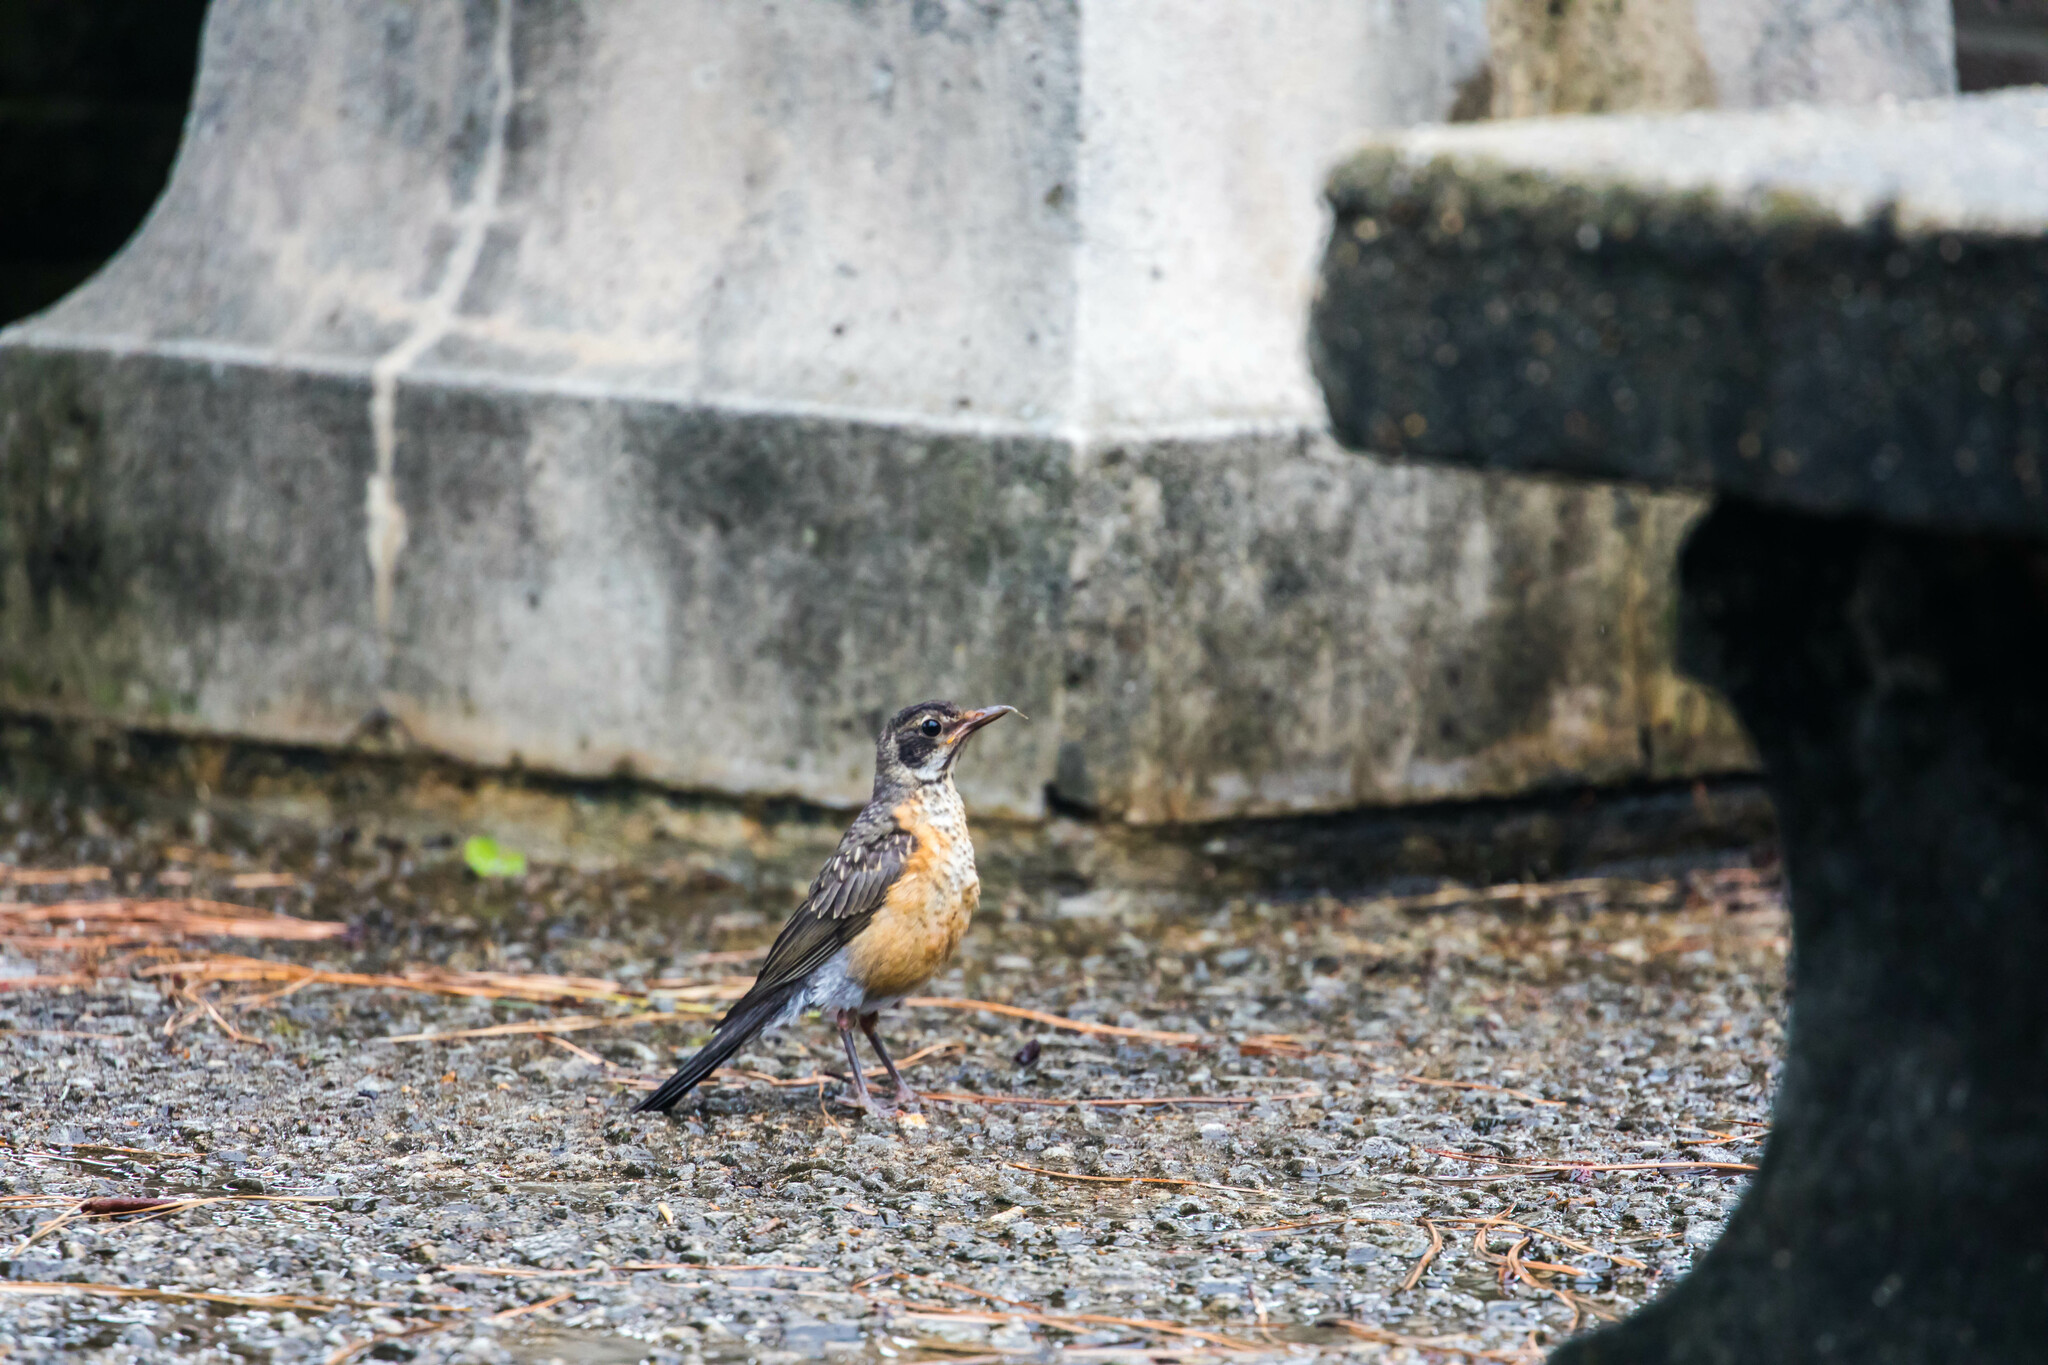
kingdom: Animalia
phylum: Chordata
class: Aves
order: Passeriformes
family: Turdidae
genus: Turdus
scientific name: Turdus migratorius
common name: American robin
